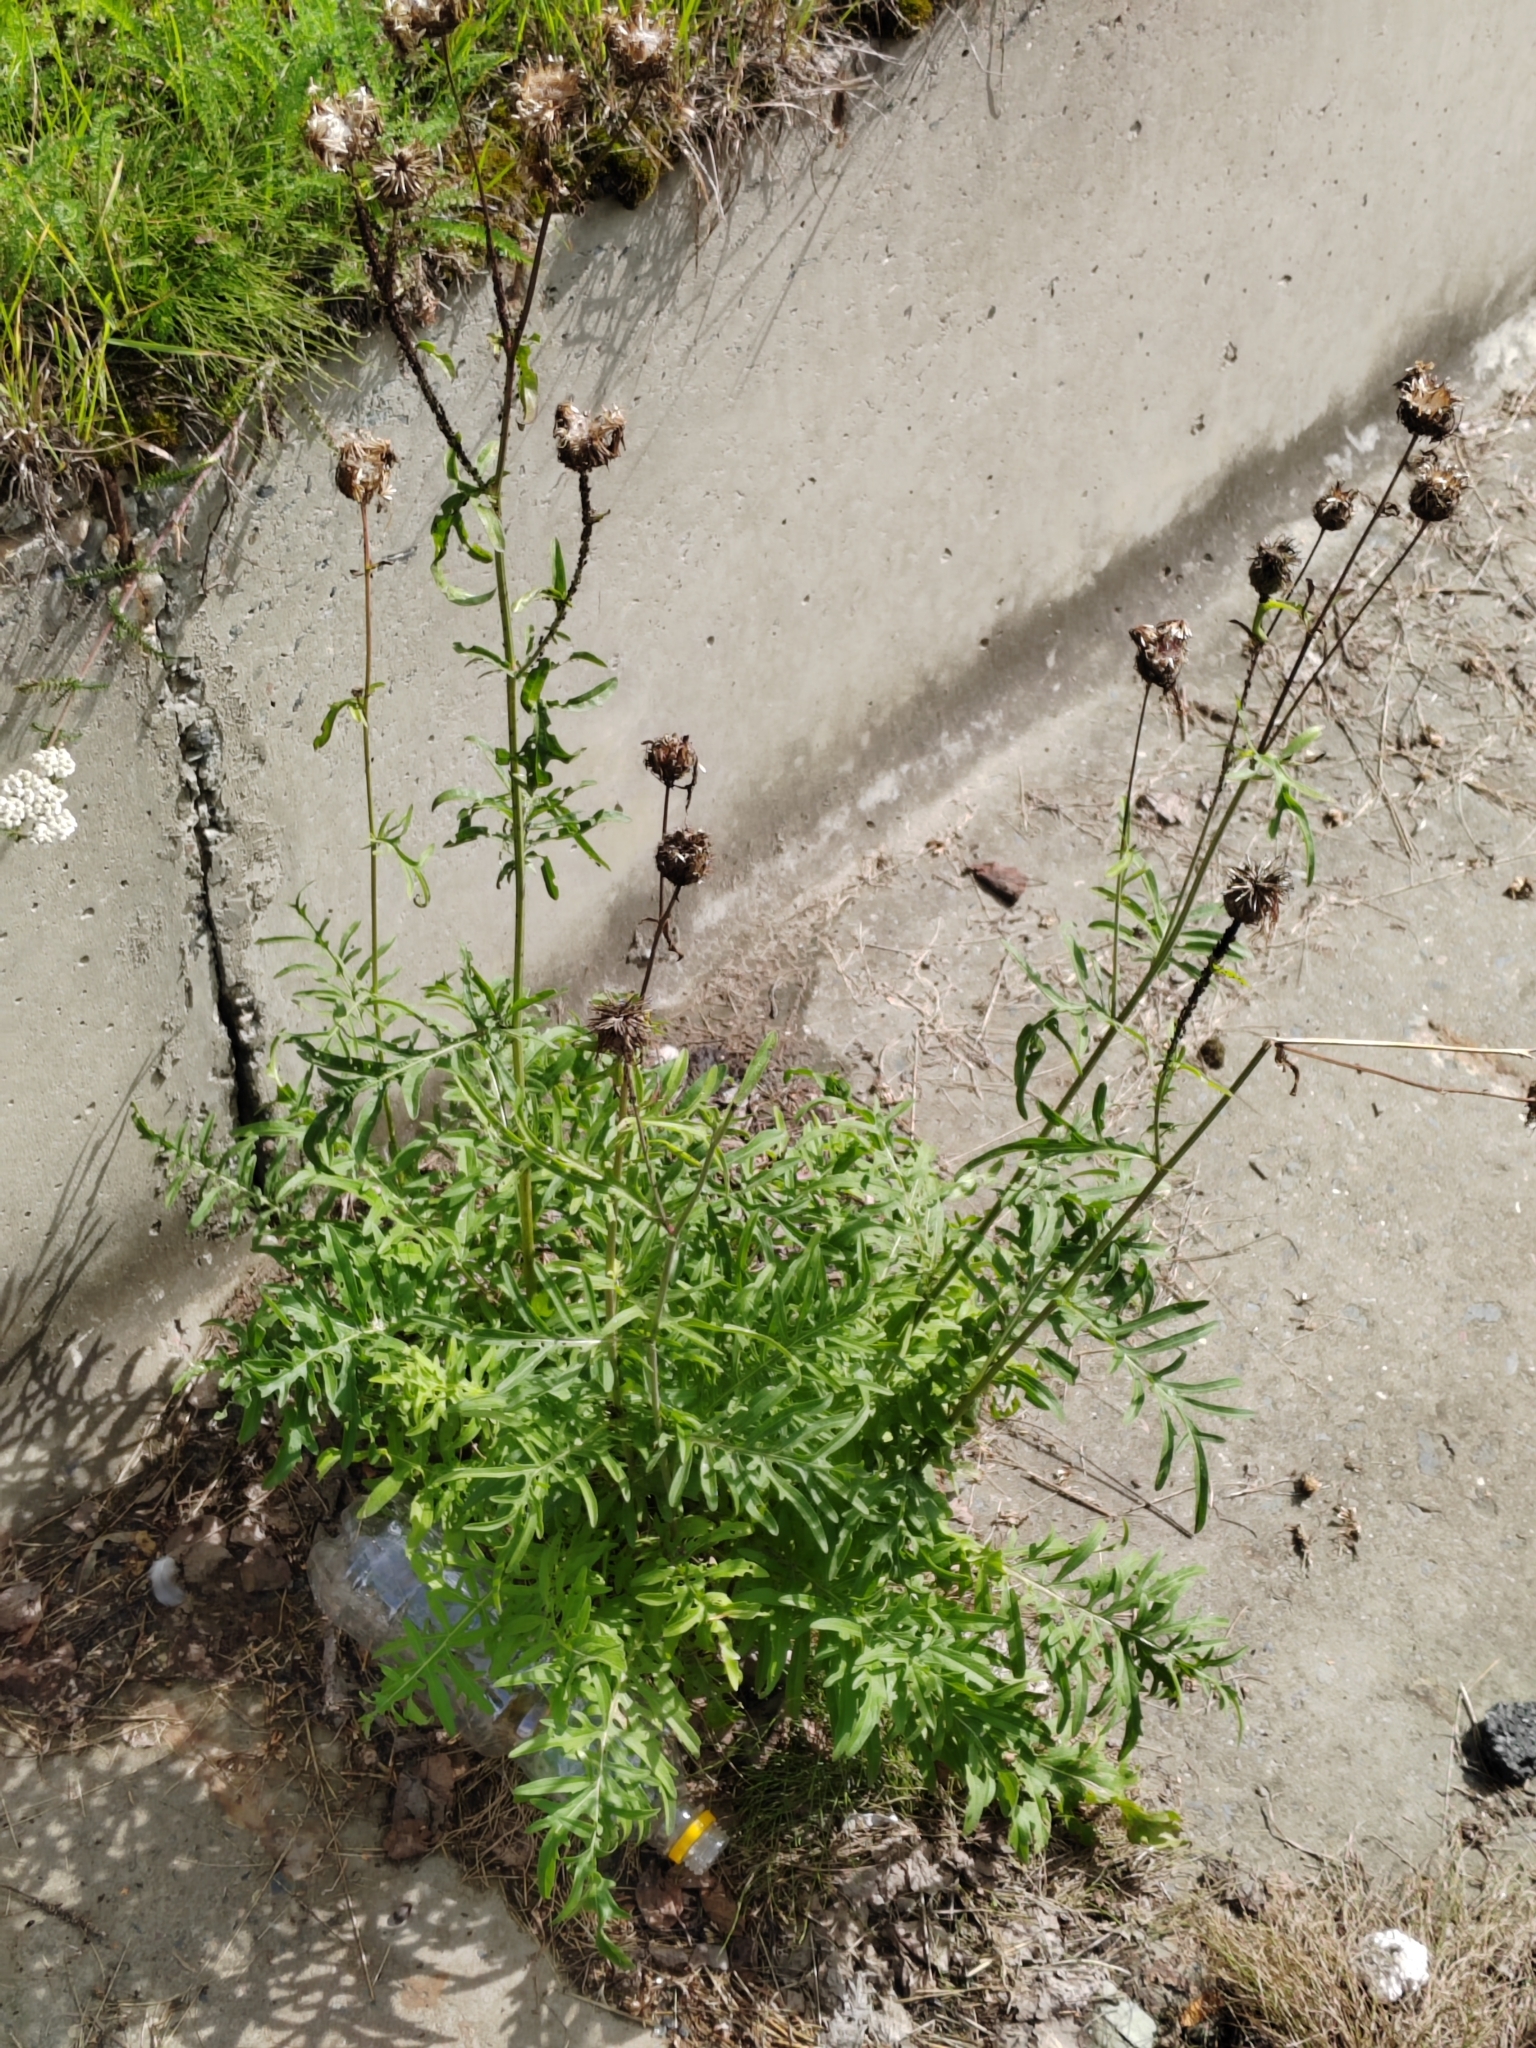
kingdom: Plantae
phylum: Tracheophyta
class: Magnoliopsida
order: Asterales
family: Asteraceae
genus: Centaurea
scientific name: Centaurea scabiosa
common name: Greater knapweed
